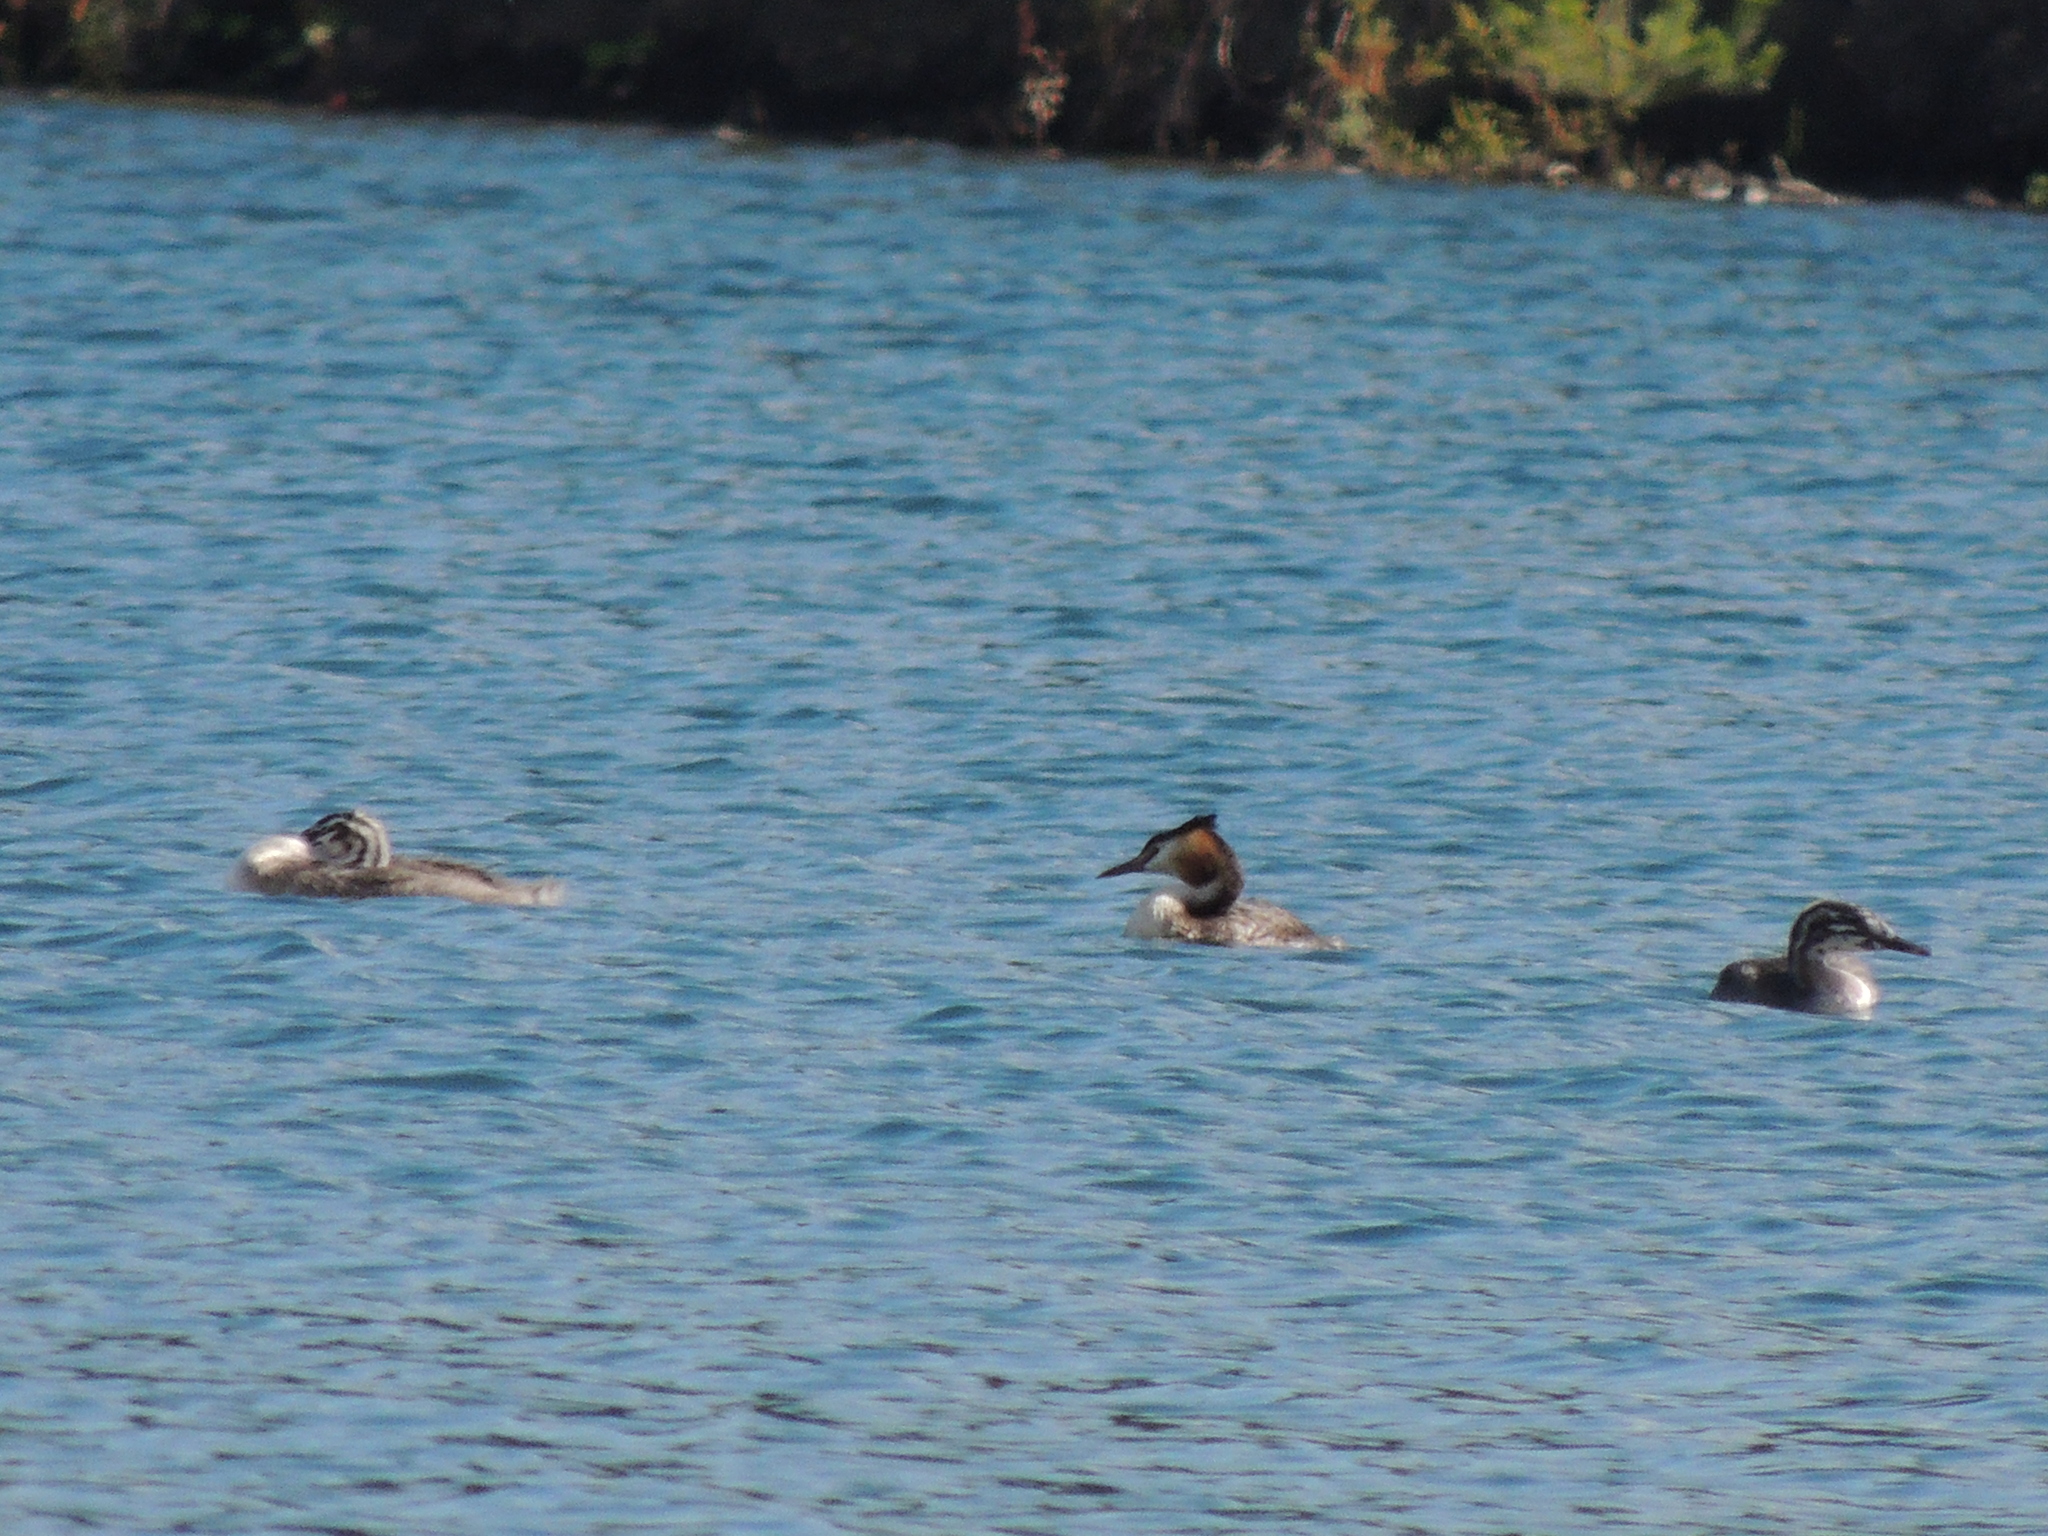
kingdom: Animalia
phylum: Chordata
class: Aves
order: Podicipediformes
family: Podicipedidae
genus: Podiceps
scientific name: Podiceps cristatus
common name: Great crested grebe
